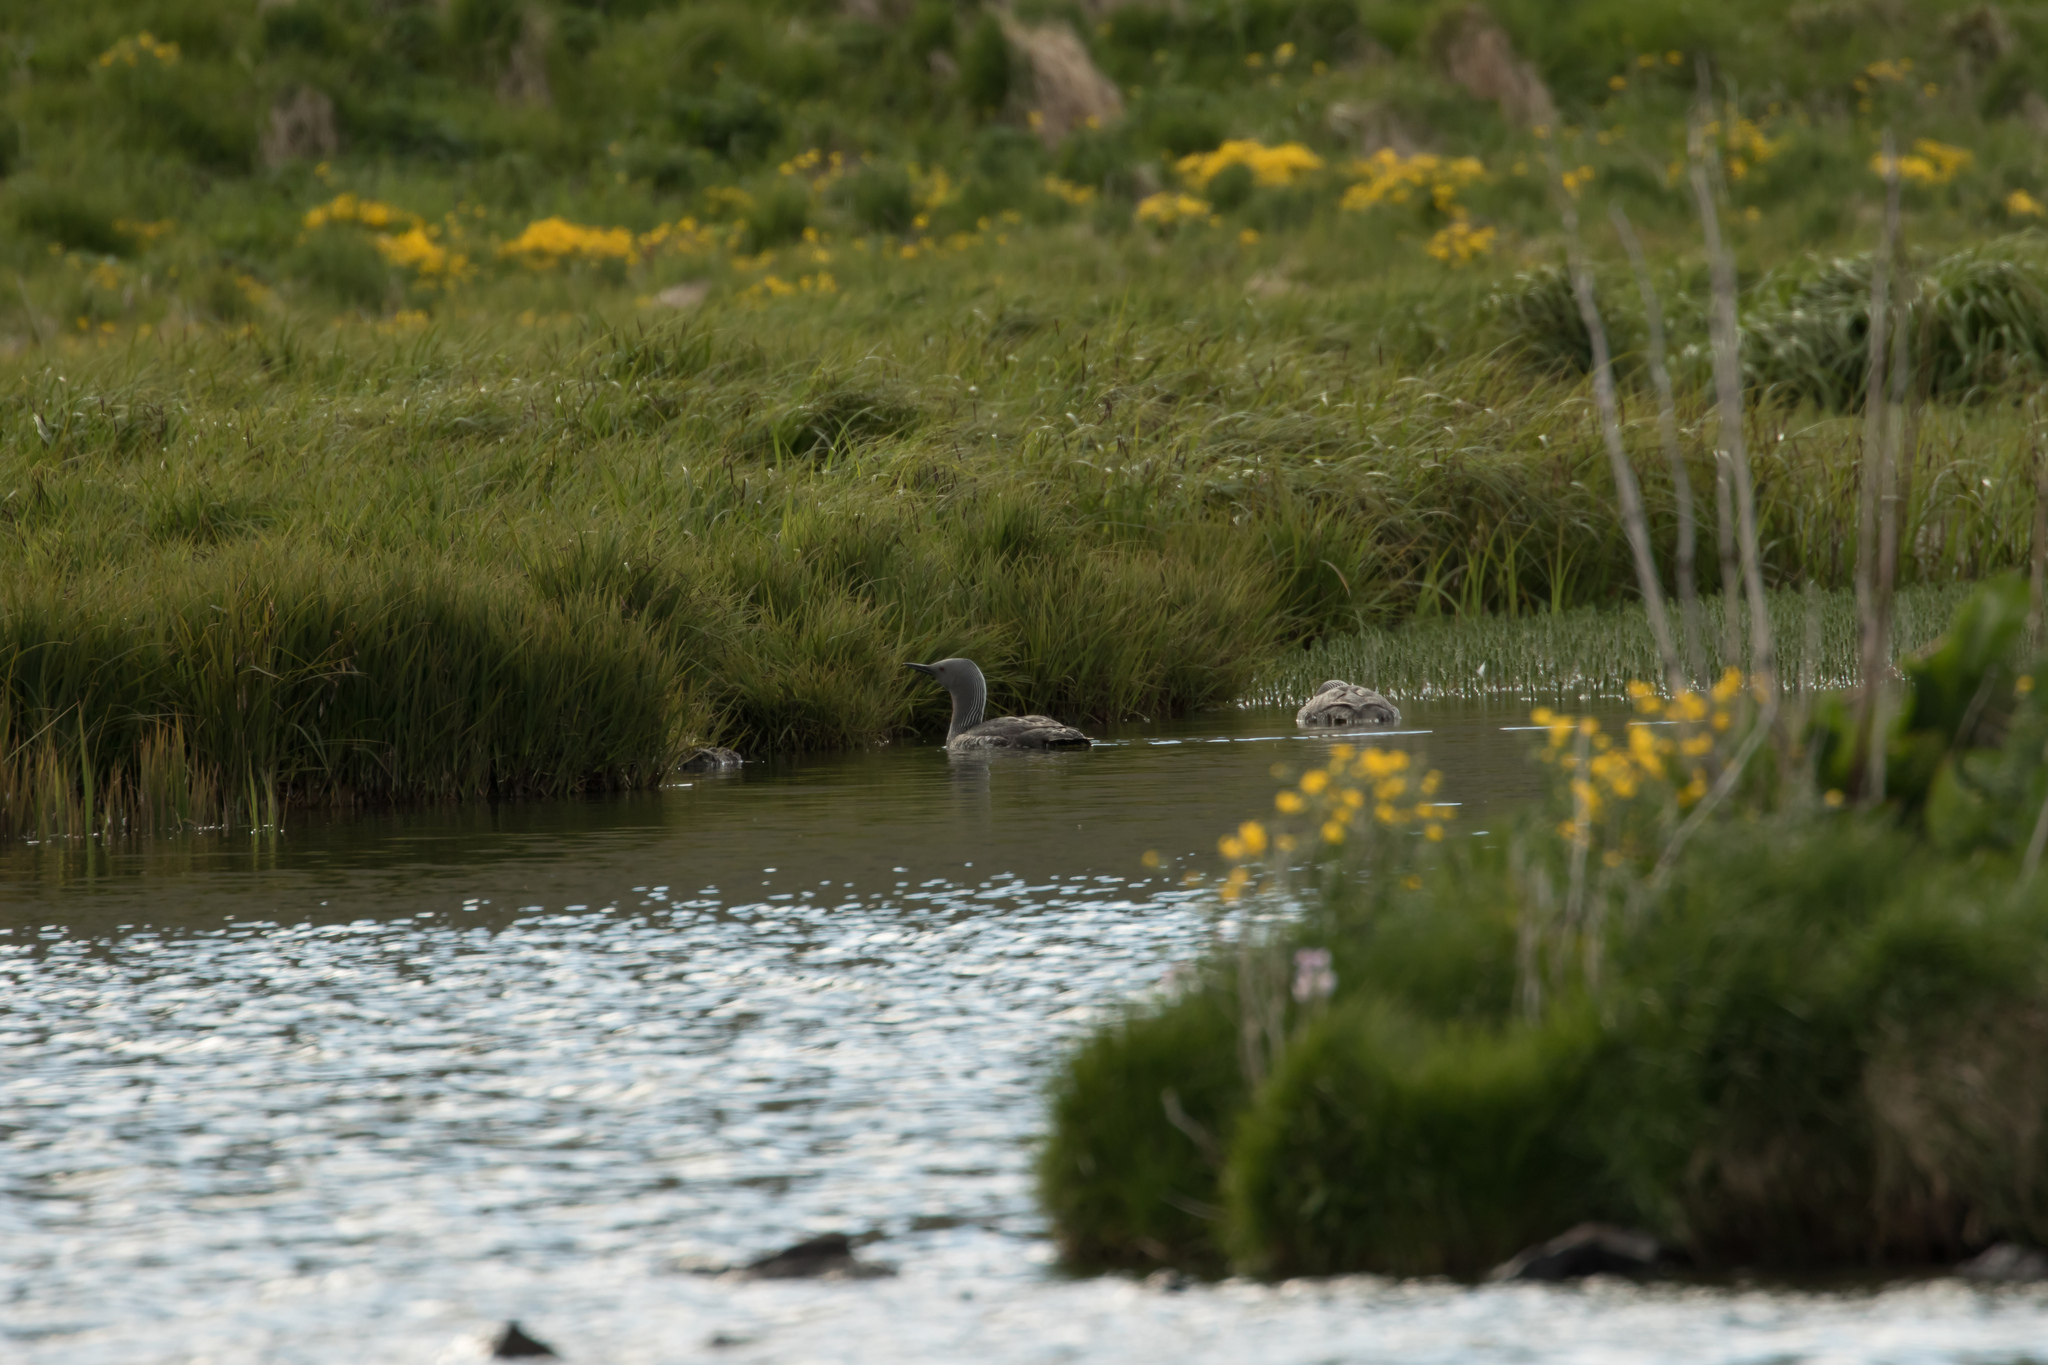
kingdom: Animalia
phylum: Chordata
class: Aves
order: Gaviiformes
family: Gaviidae
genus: Gavia
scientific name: Gavia stellata
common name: Red-throated loon
